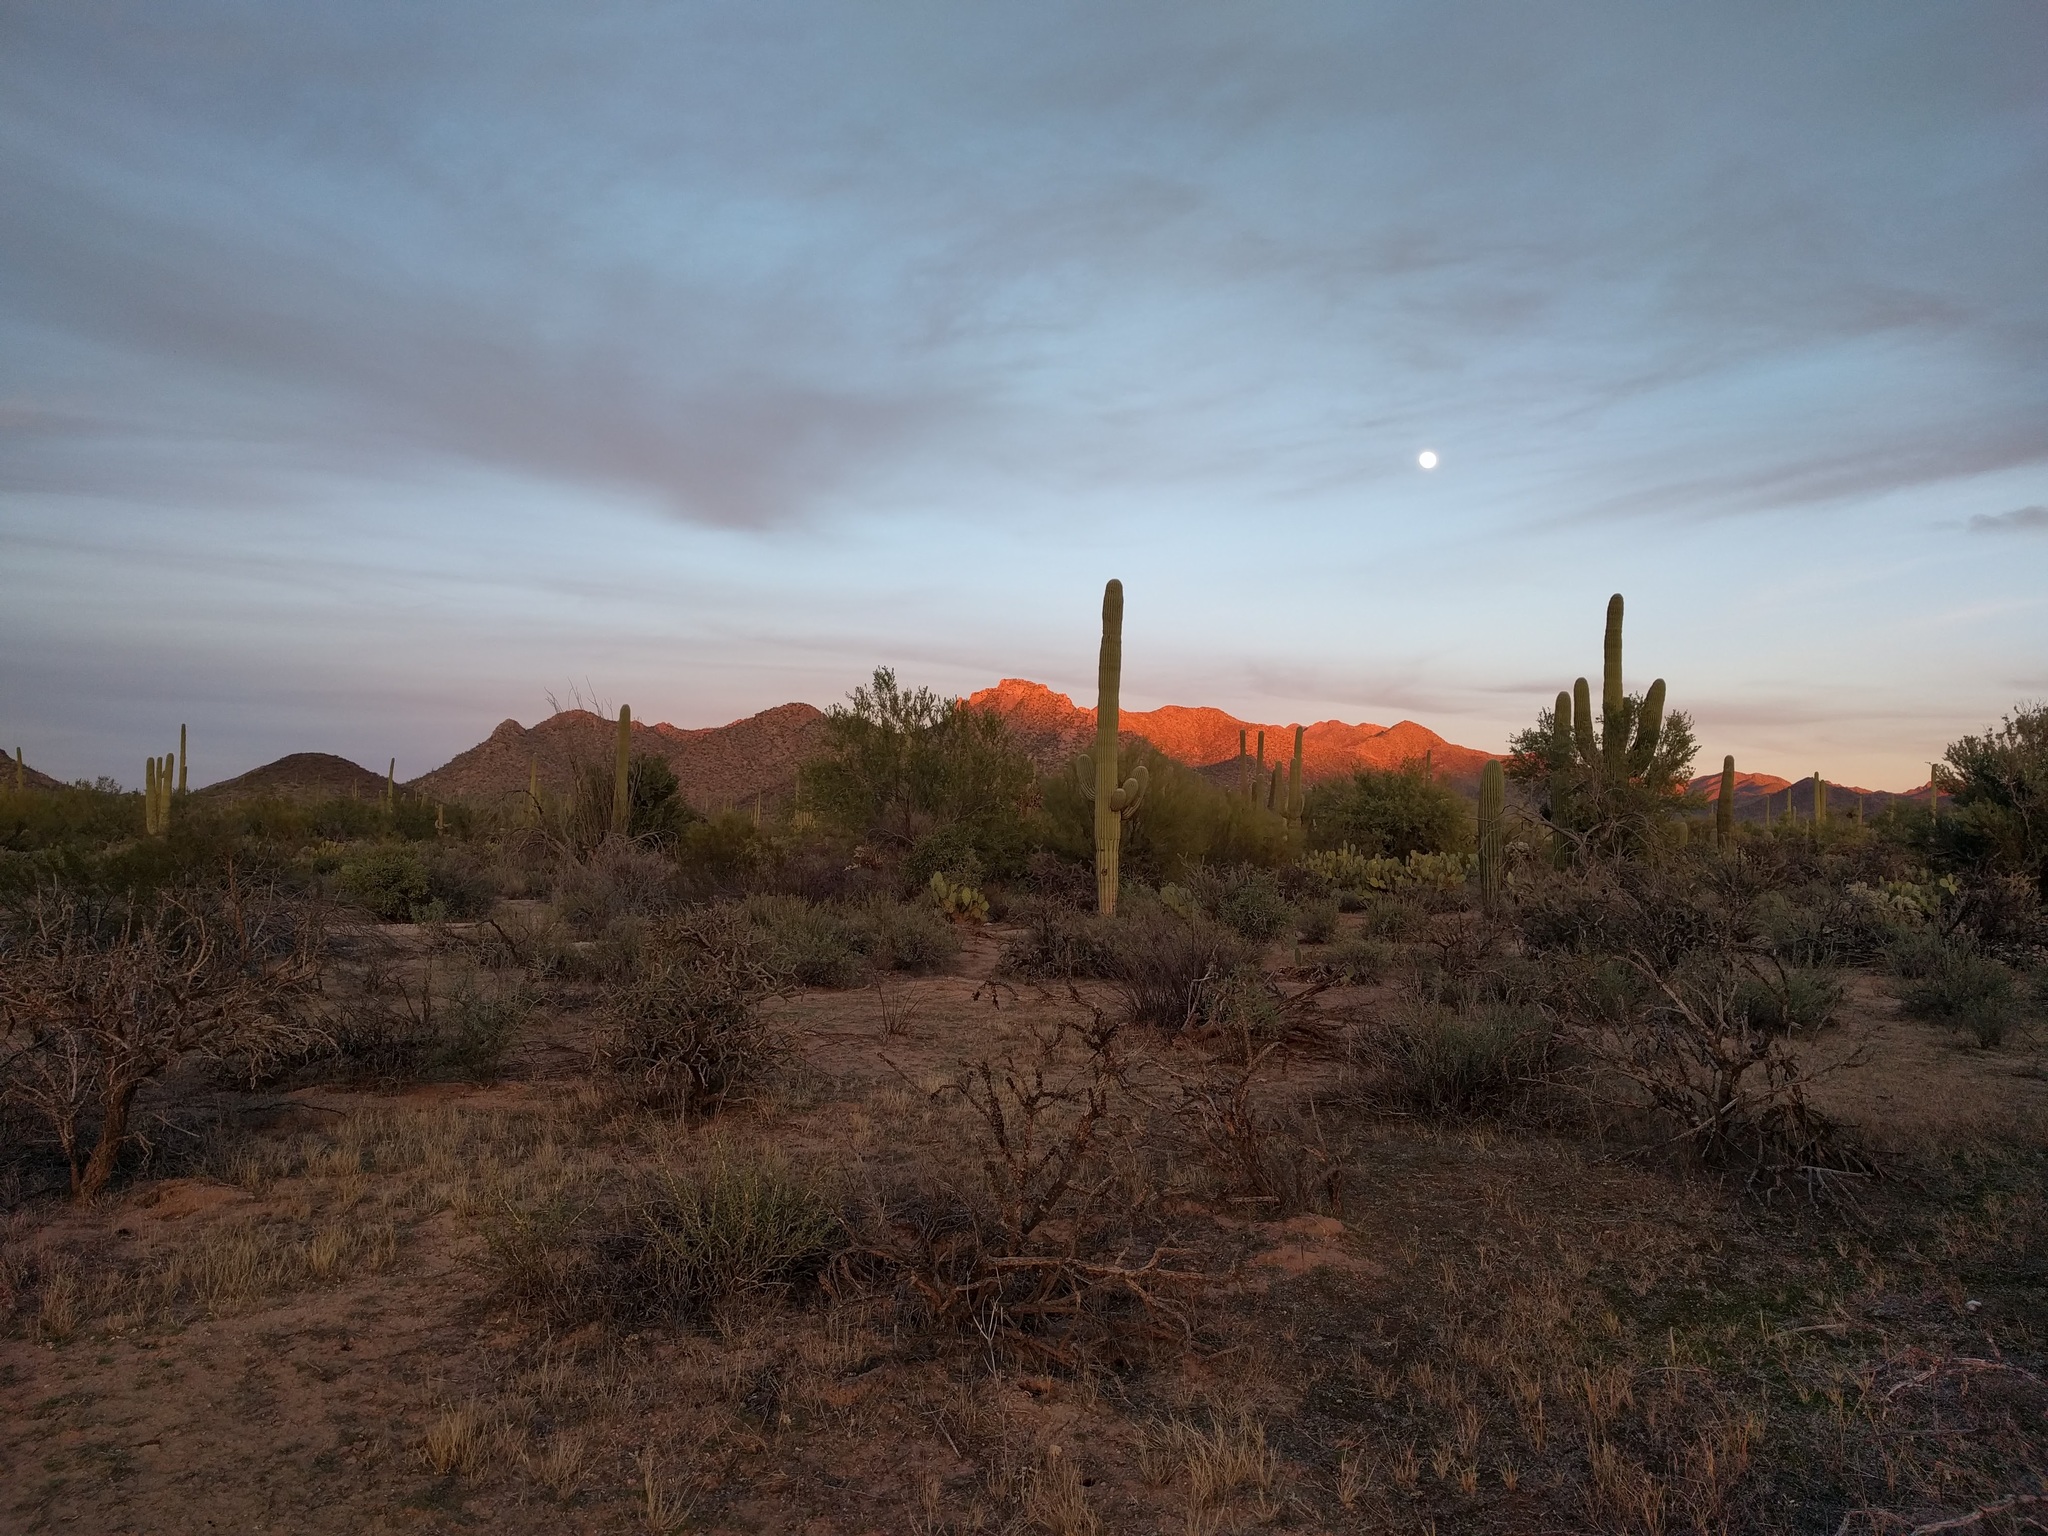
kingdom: Plantae
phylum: Tracheophyta
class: Magnoliopsida
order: Caryophyllales
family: Cactaceae
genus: Carnegiea
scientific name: Carnegiea gigantea
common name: Saguaro
